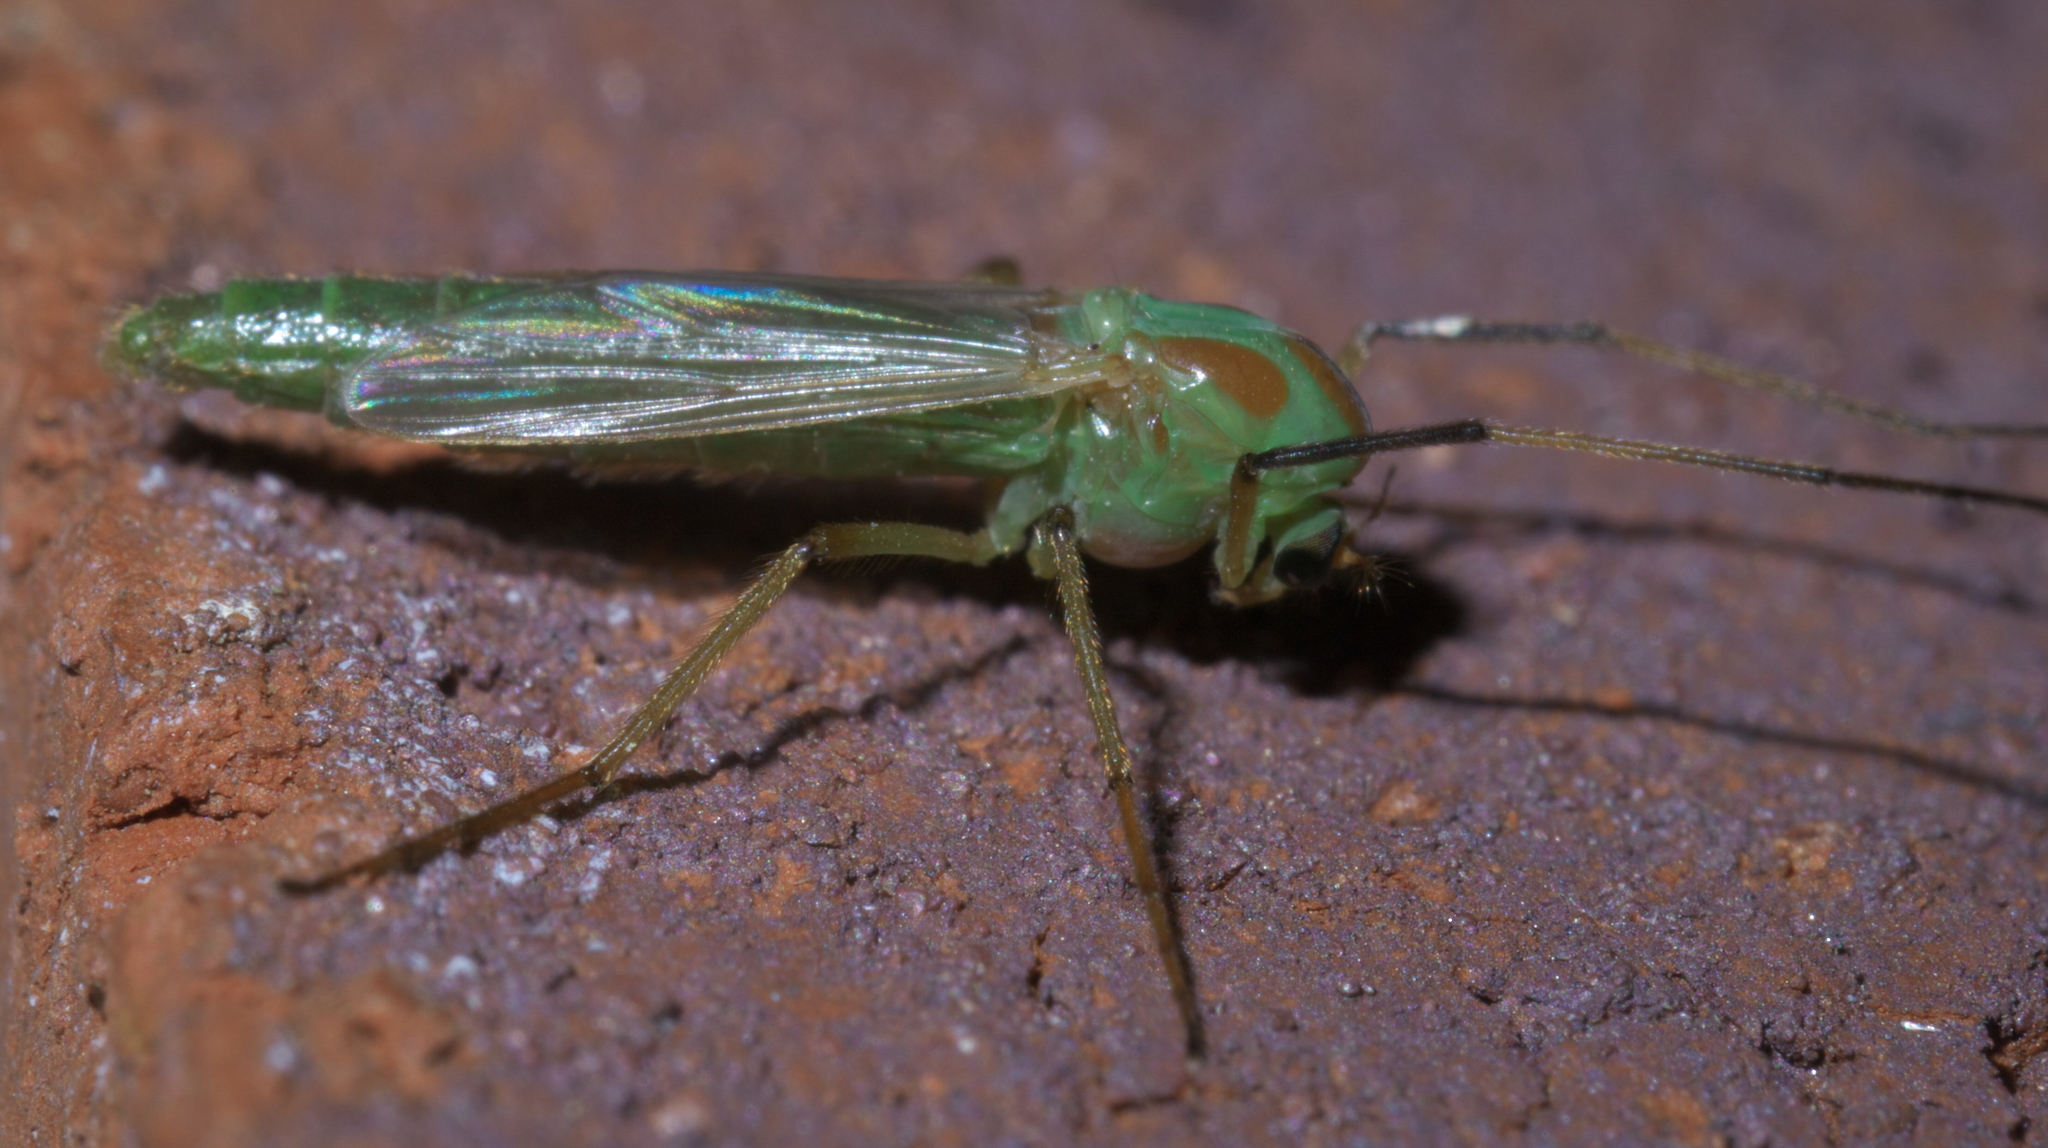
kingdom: Animalia
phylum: Arthropoda
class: Insecta
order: Diptera
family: Chironomidae
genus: Axarus
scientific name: Axarus
